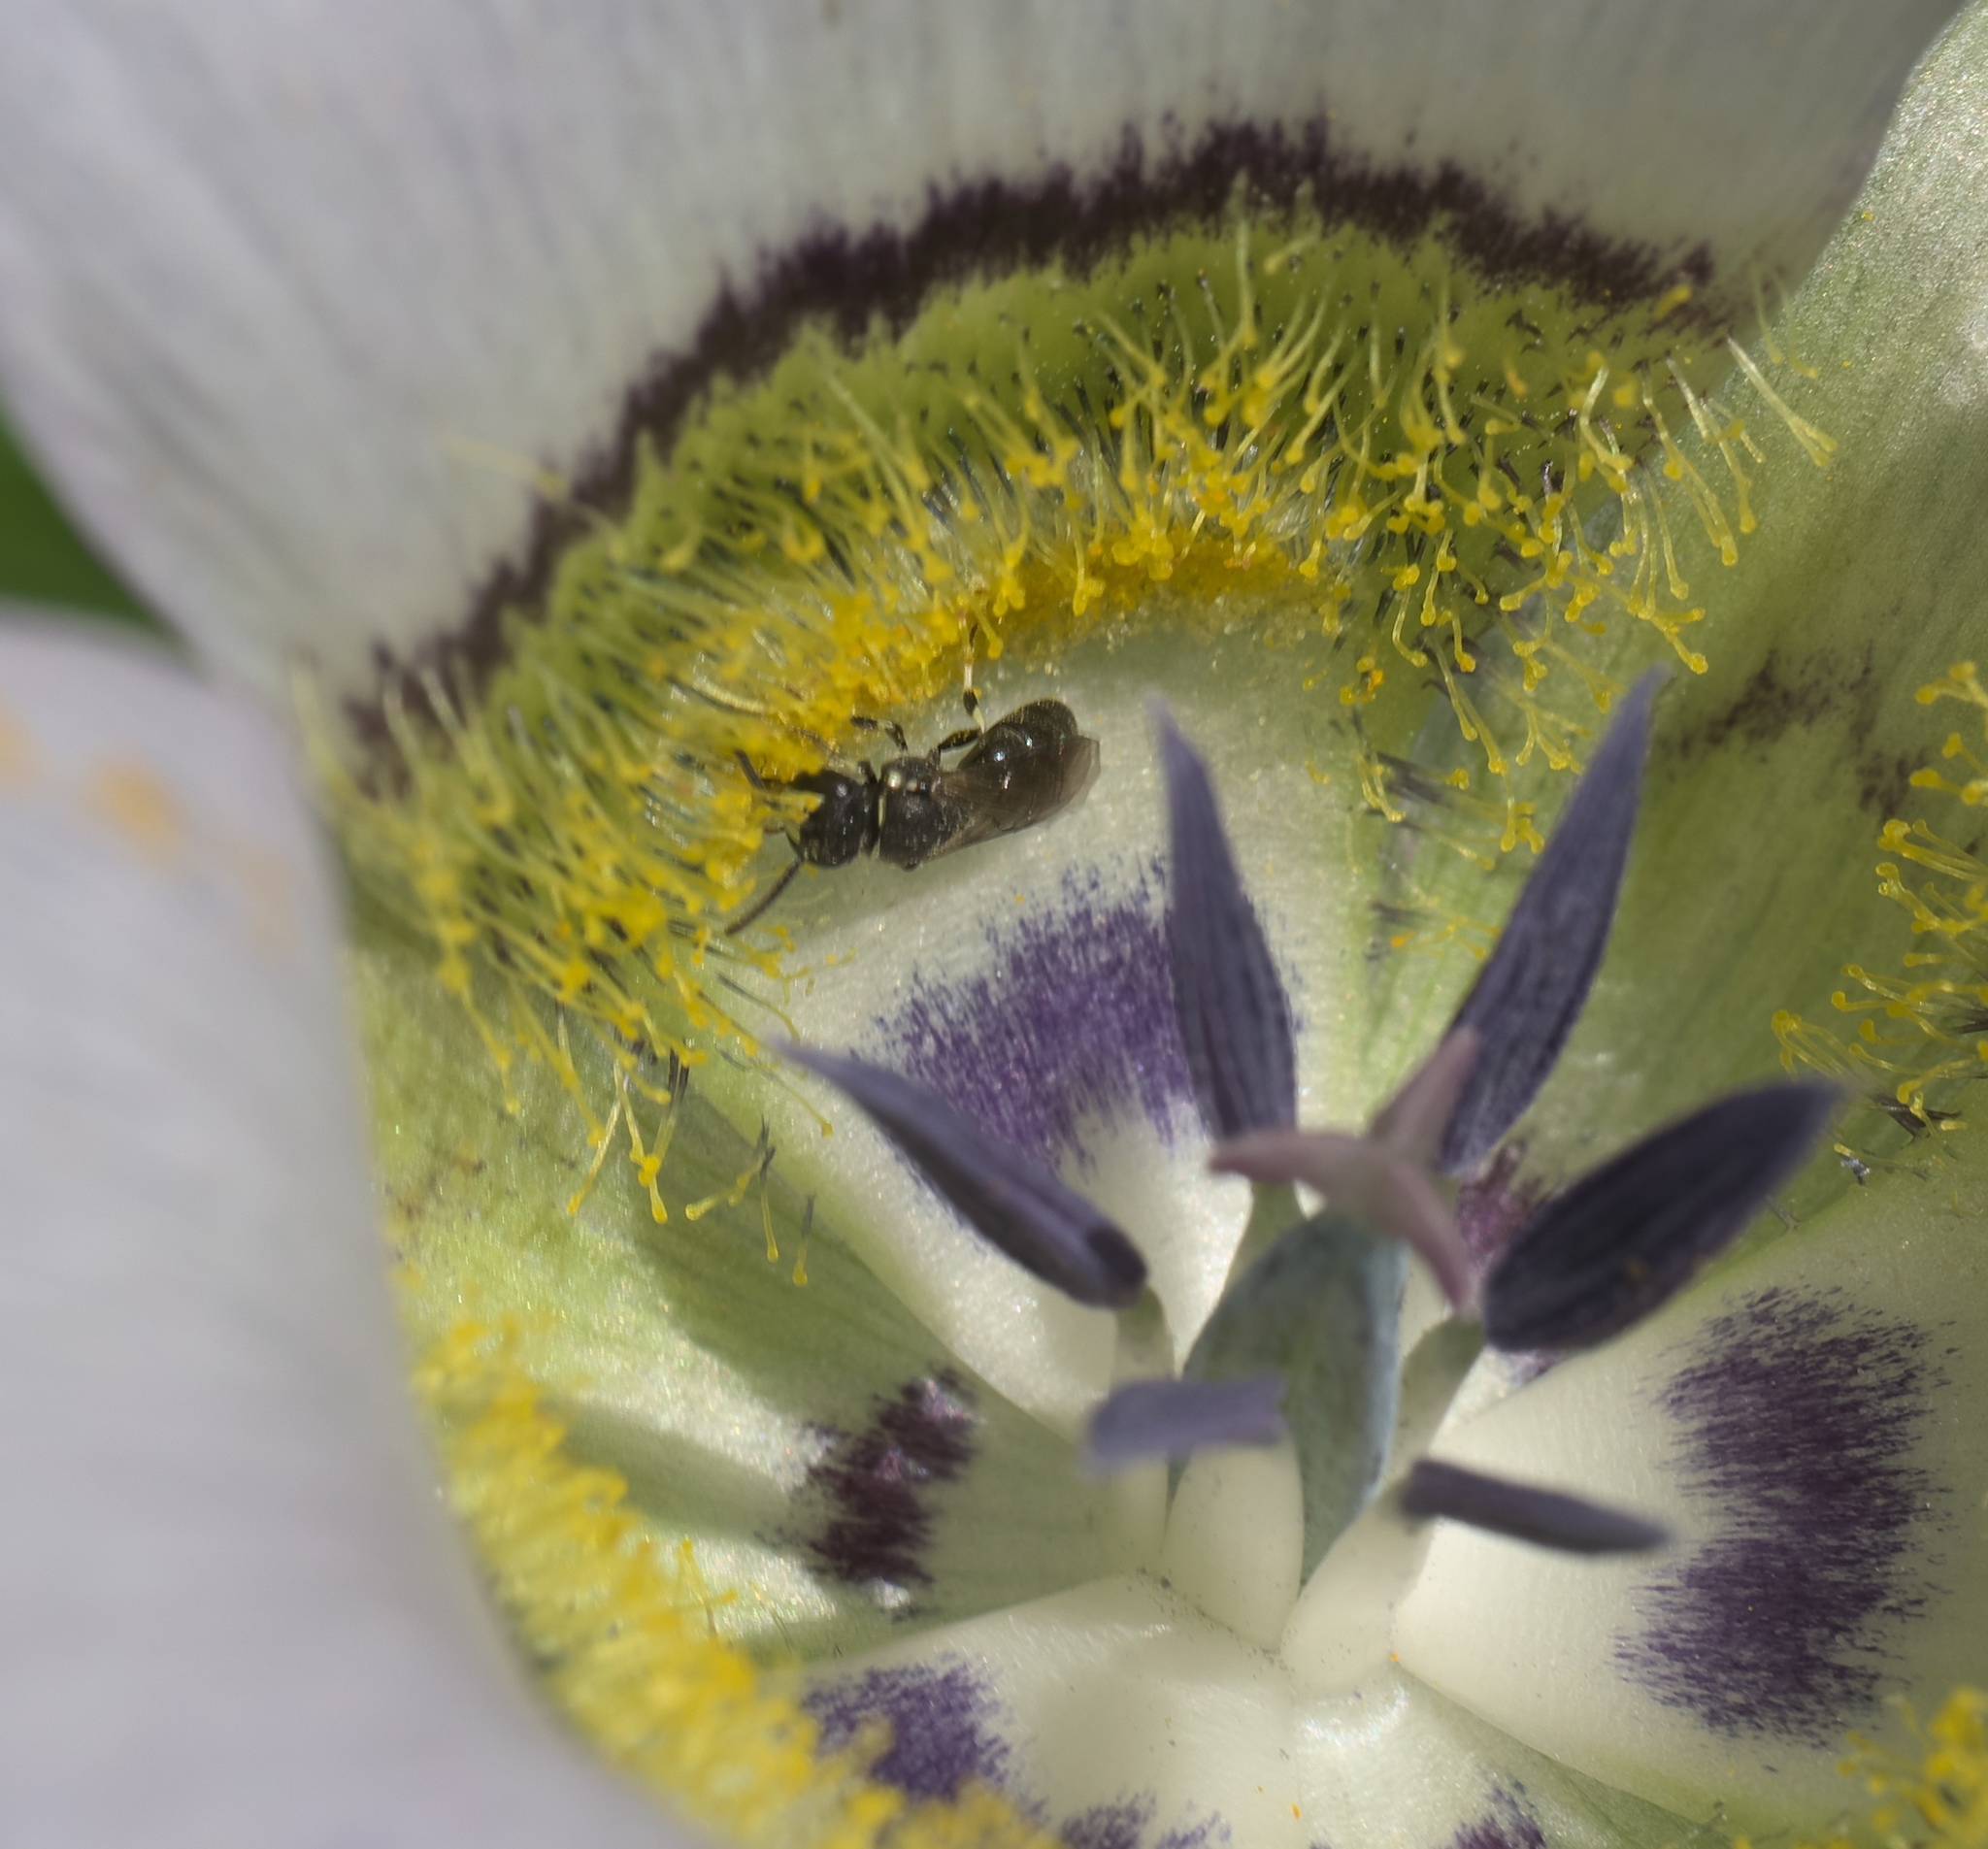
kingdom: Animalia
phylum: Arthropoda
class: Insecta
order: Hymenoptera
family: Colletidae
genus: Hylaeus
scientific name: Hylaeus
